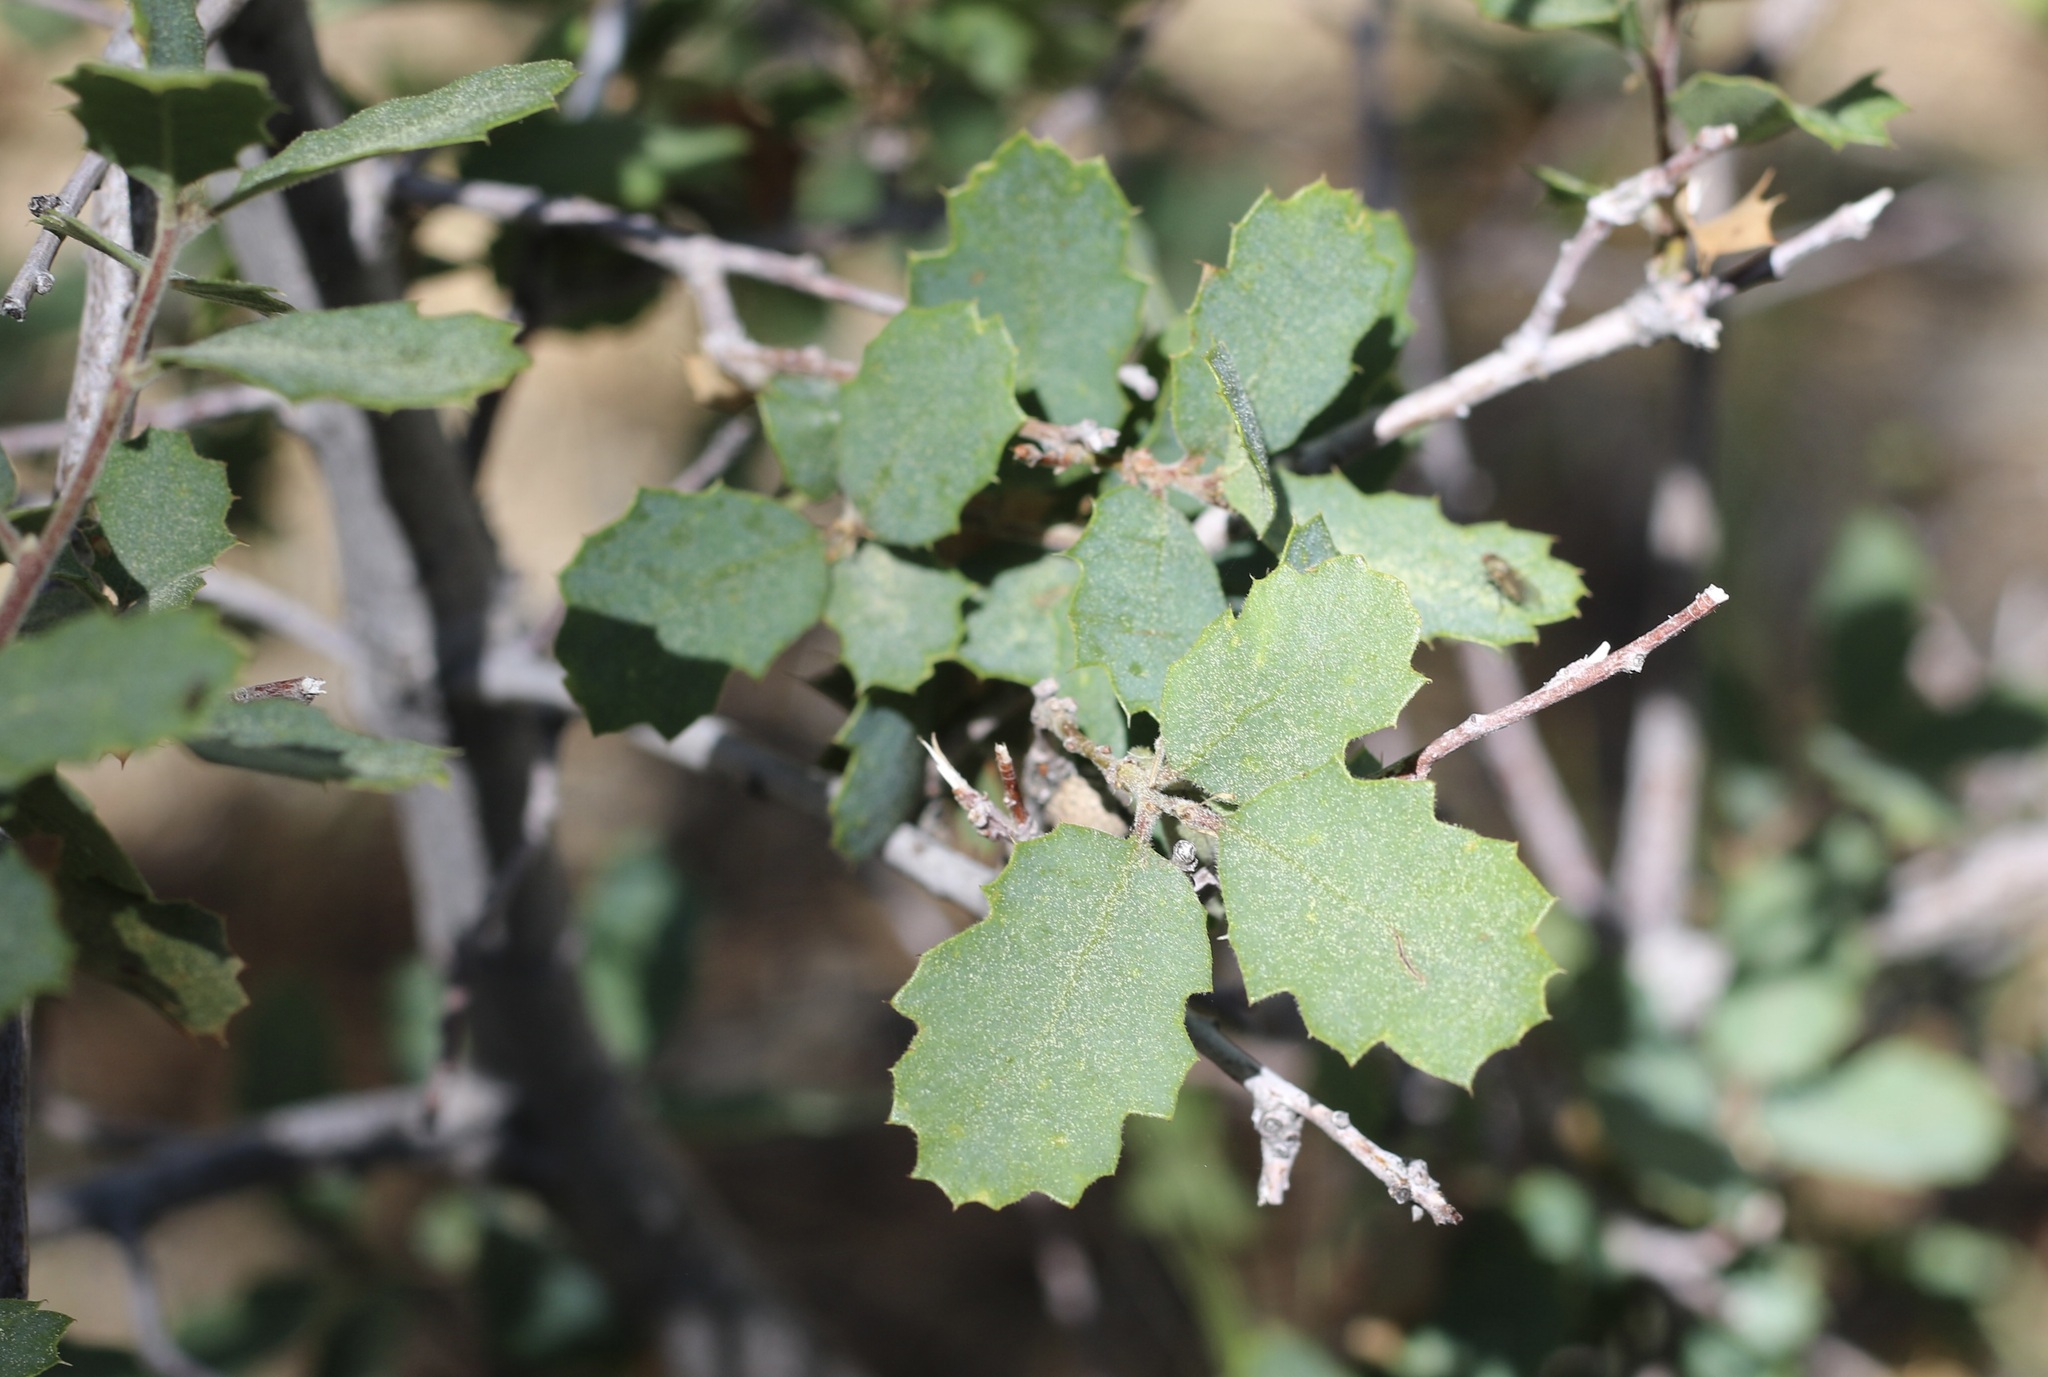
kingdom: Plantae
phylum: Tracheophyta
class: Magnoliopsida
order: Fagales
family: Fagaceae
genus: Quercus
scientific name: Quercus john-tuckeri
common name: Tucker's oak
